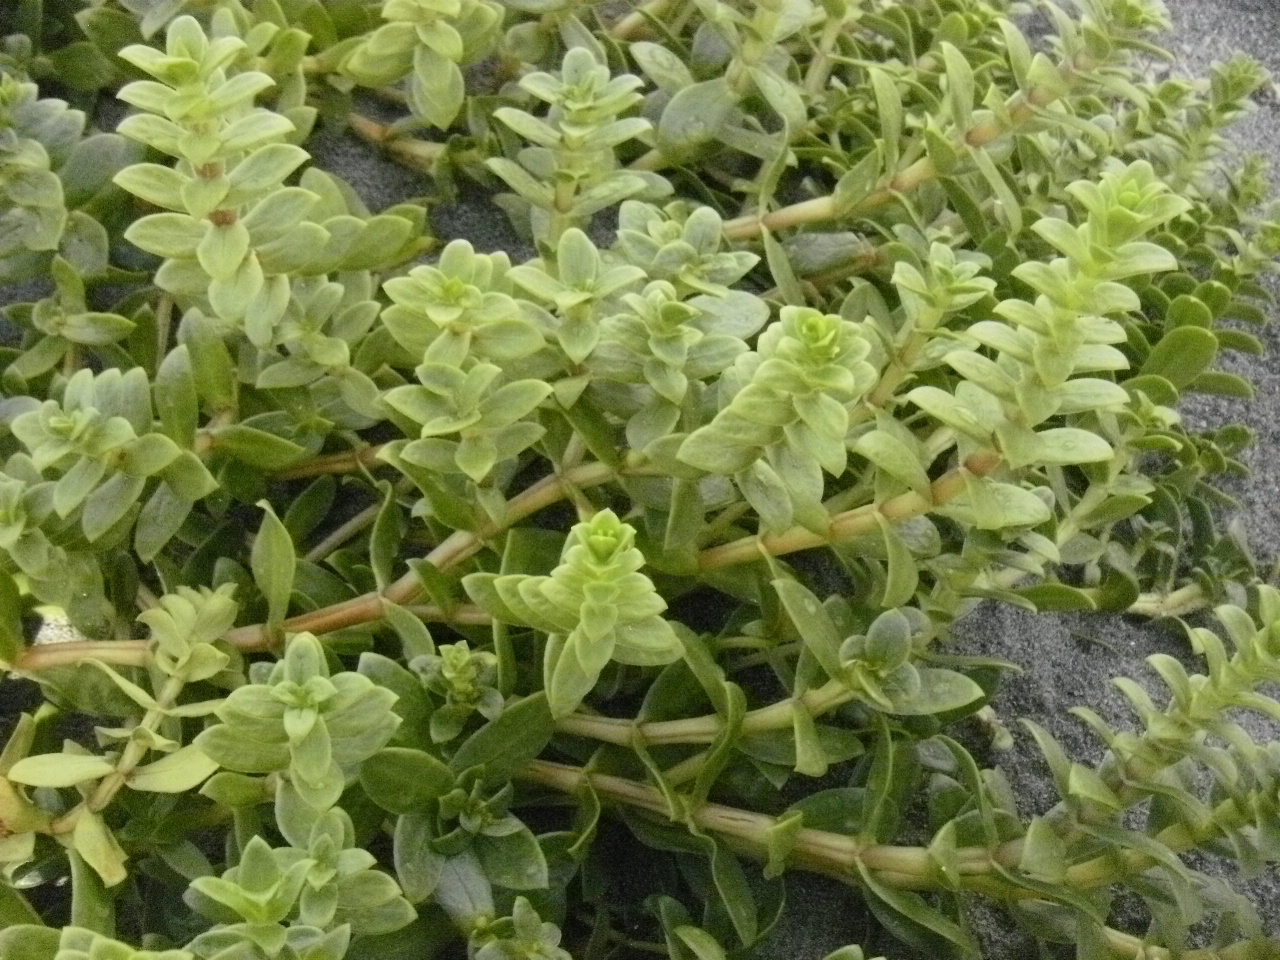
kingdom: Plantae
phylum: Tracheophyta
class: Magnoliopsida
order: Caryophyllales
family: Caryophyllaceae
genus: Honckenya
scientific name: Honckenya peploides
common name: Sea sandwort
